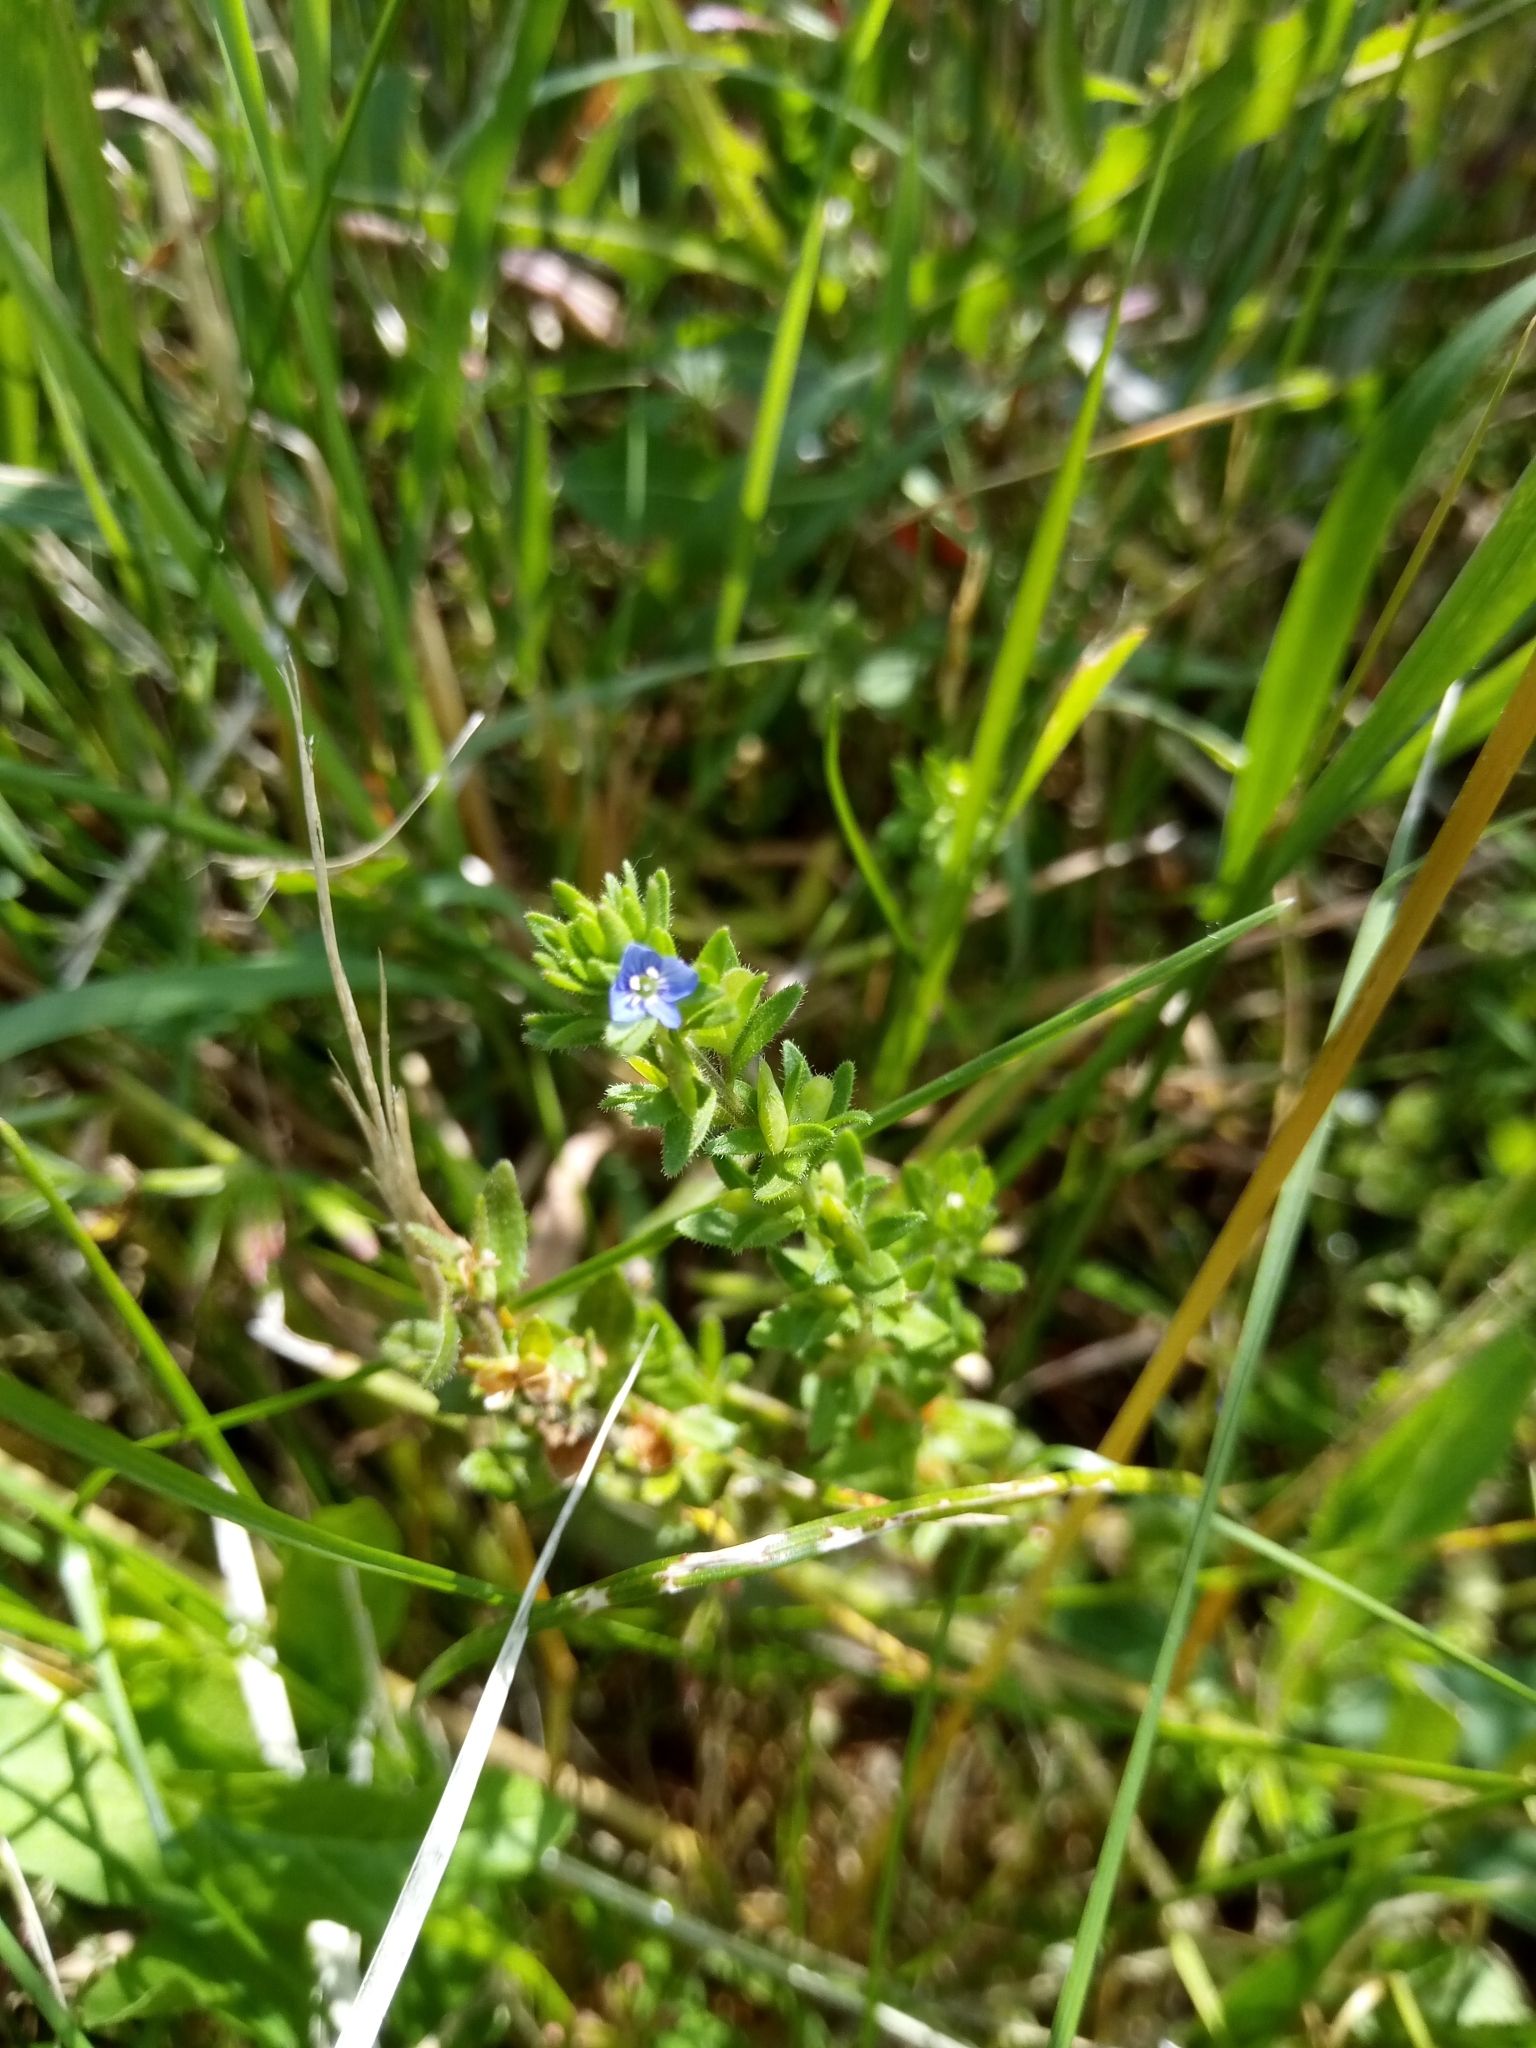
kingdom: Plantae
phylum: Tracheophyta
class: Magnoliopsida
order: Lamiales
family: Plantaginaceae
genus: Veronica
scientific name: Veronica arvensis
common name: Corn speedwell
